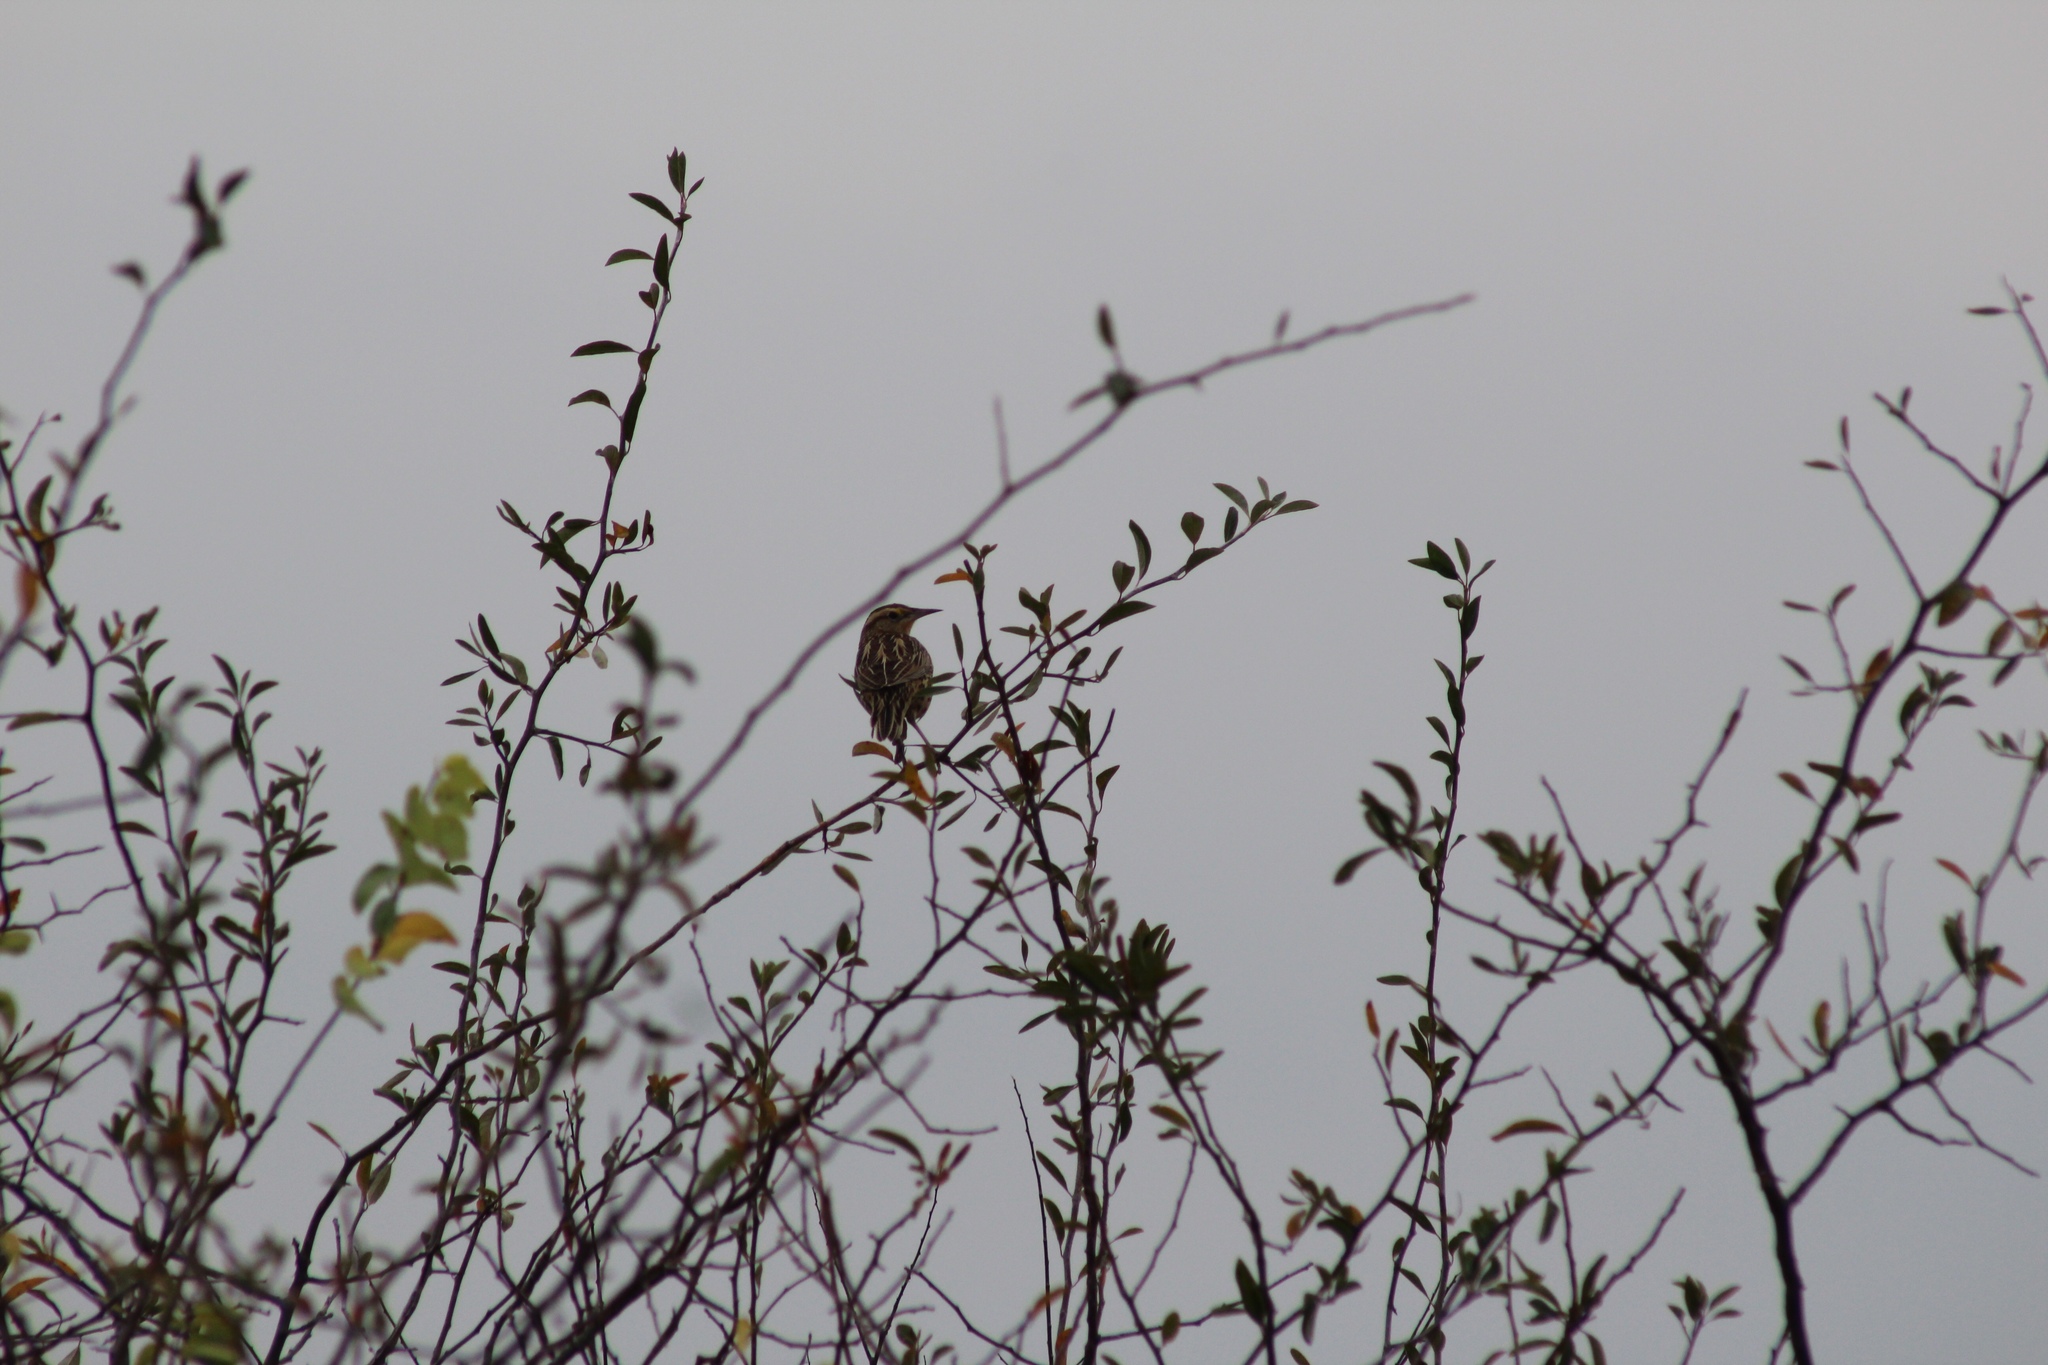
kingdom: Animalia
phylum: Chordata
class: Aves
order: Passeriformes
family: Icteridae
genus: Sturnella
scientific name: Sturnella magna
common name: Eastern meadowlark
